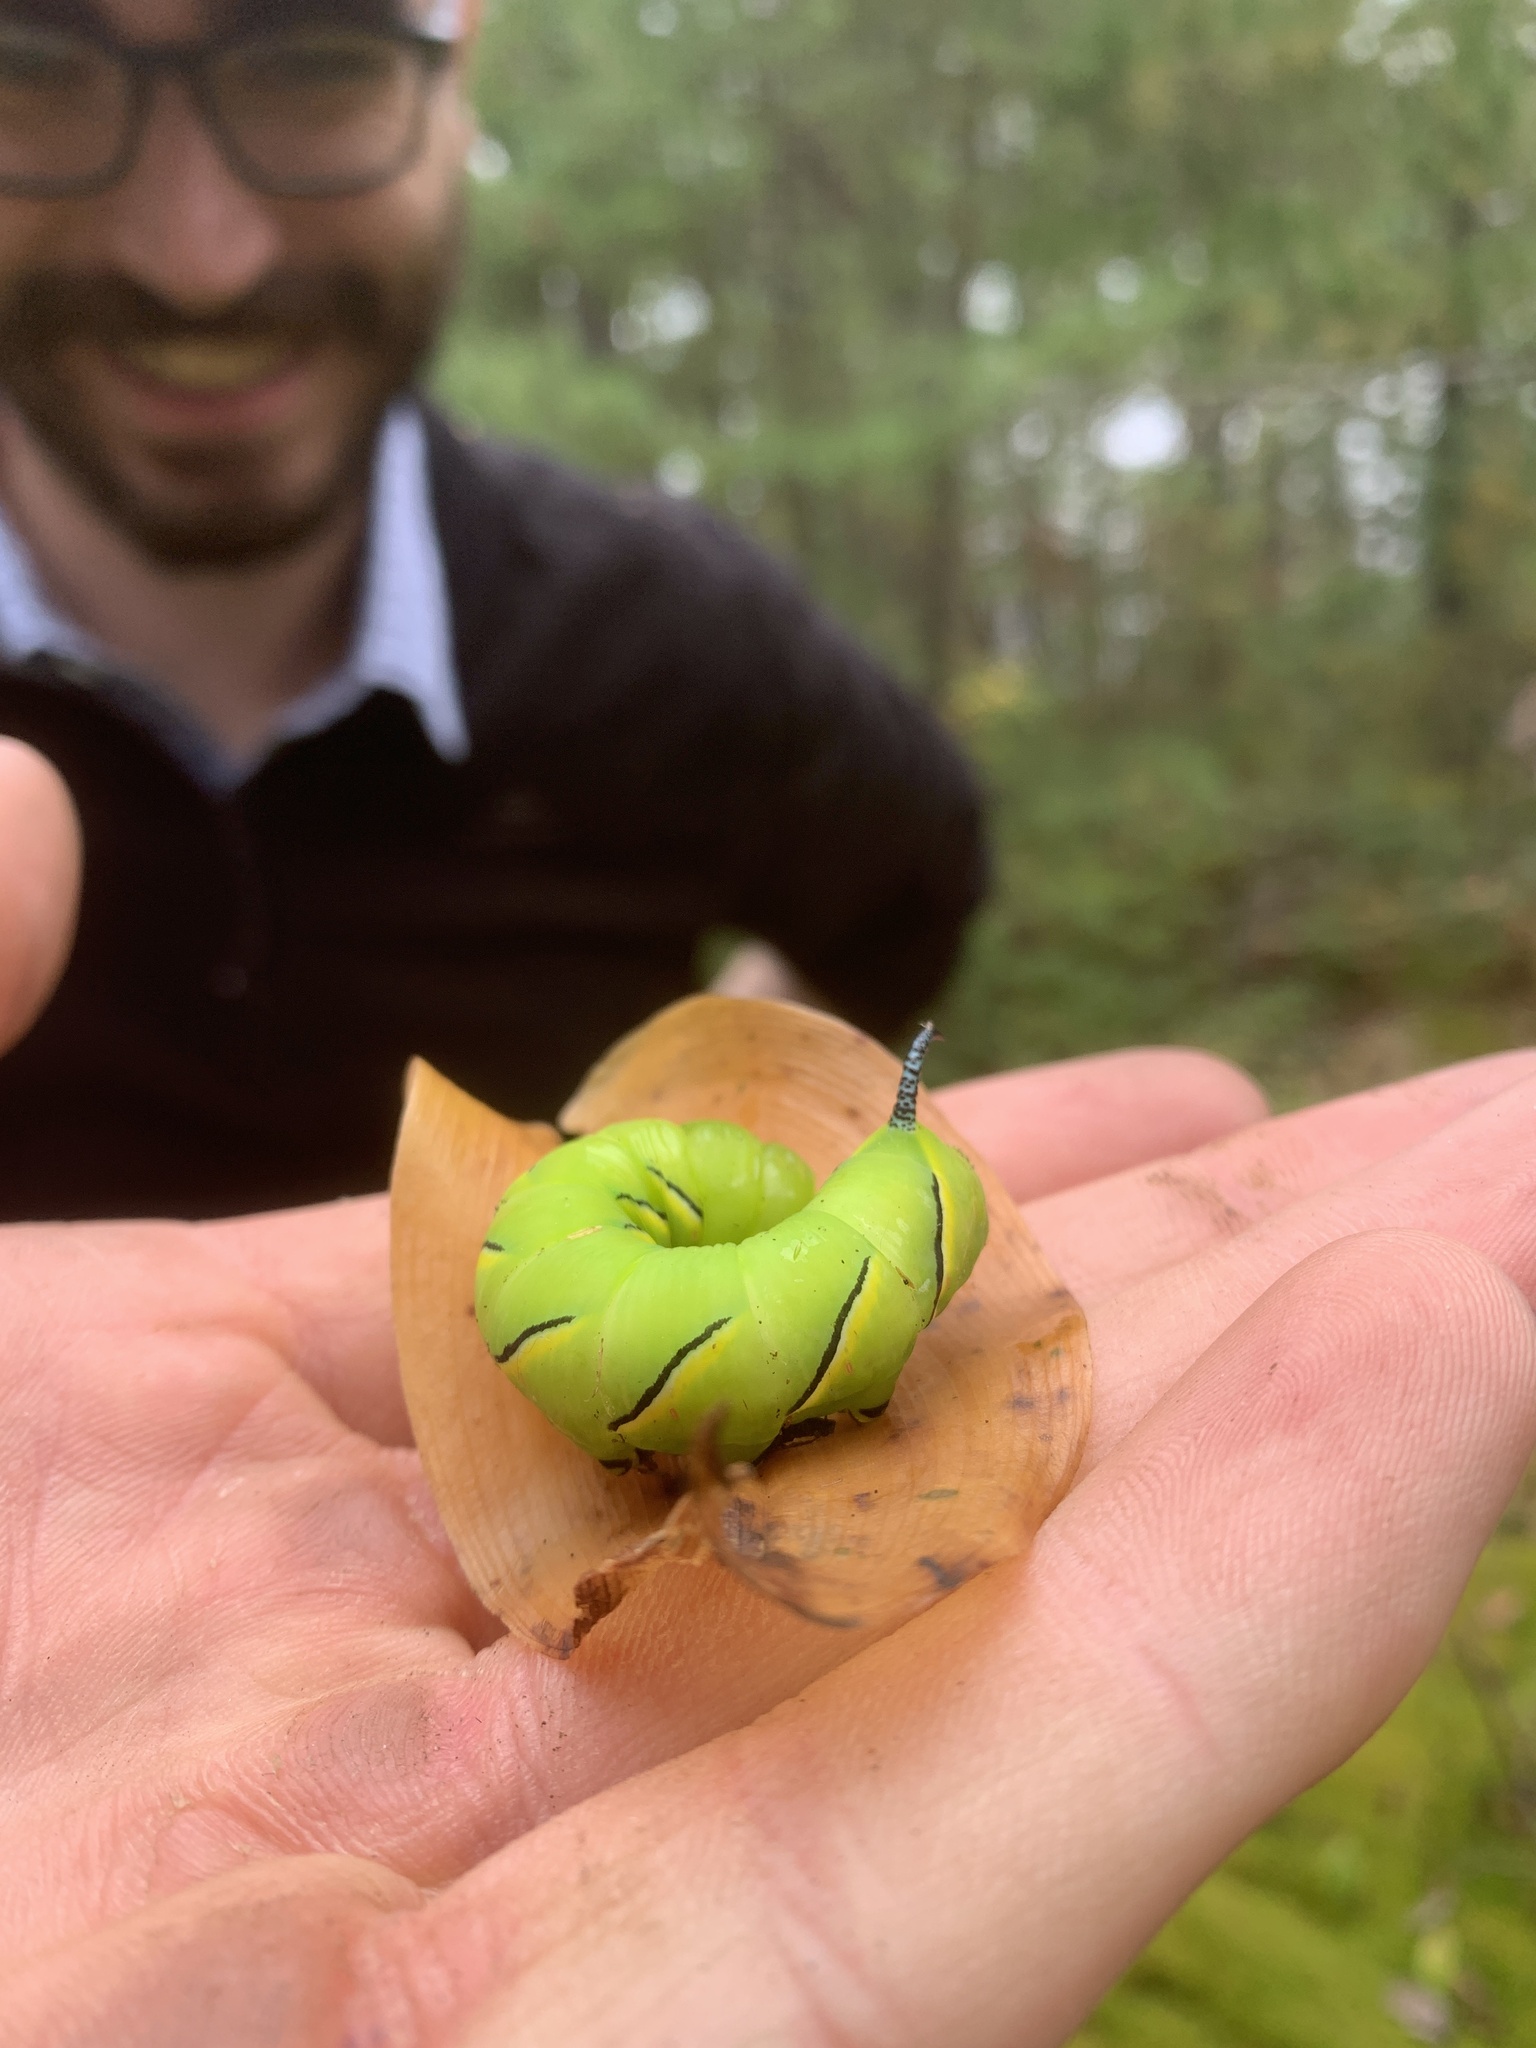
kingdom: Animalia
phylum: Arthropoda
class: Insecta
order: Lepidoptera
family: Sphingidae
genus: Sphinx
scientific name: Sphinx kalmiae
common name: Laurel sphinx
